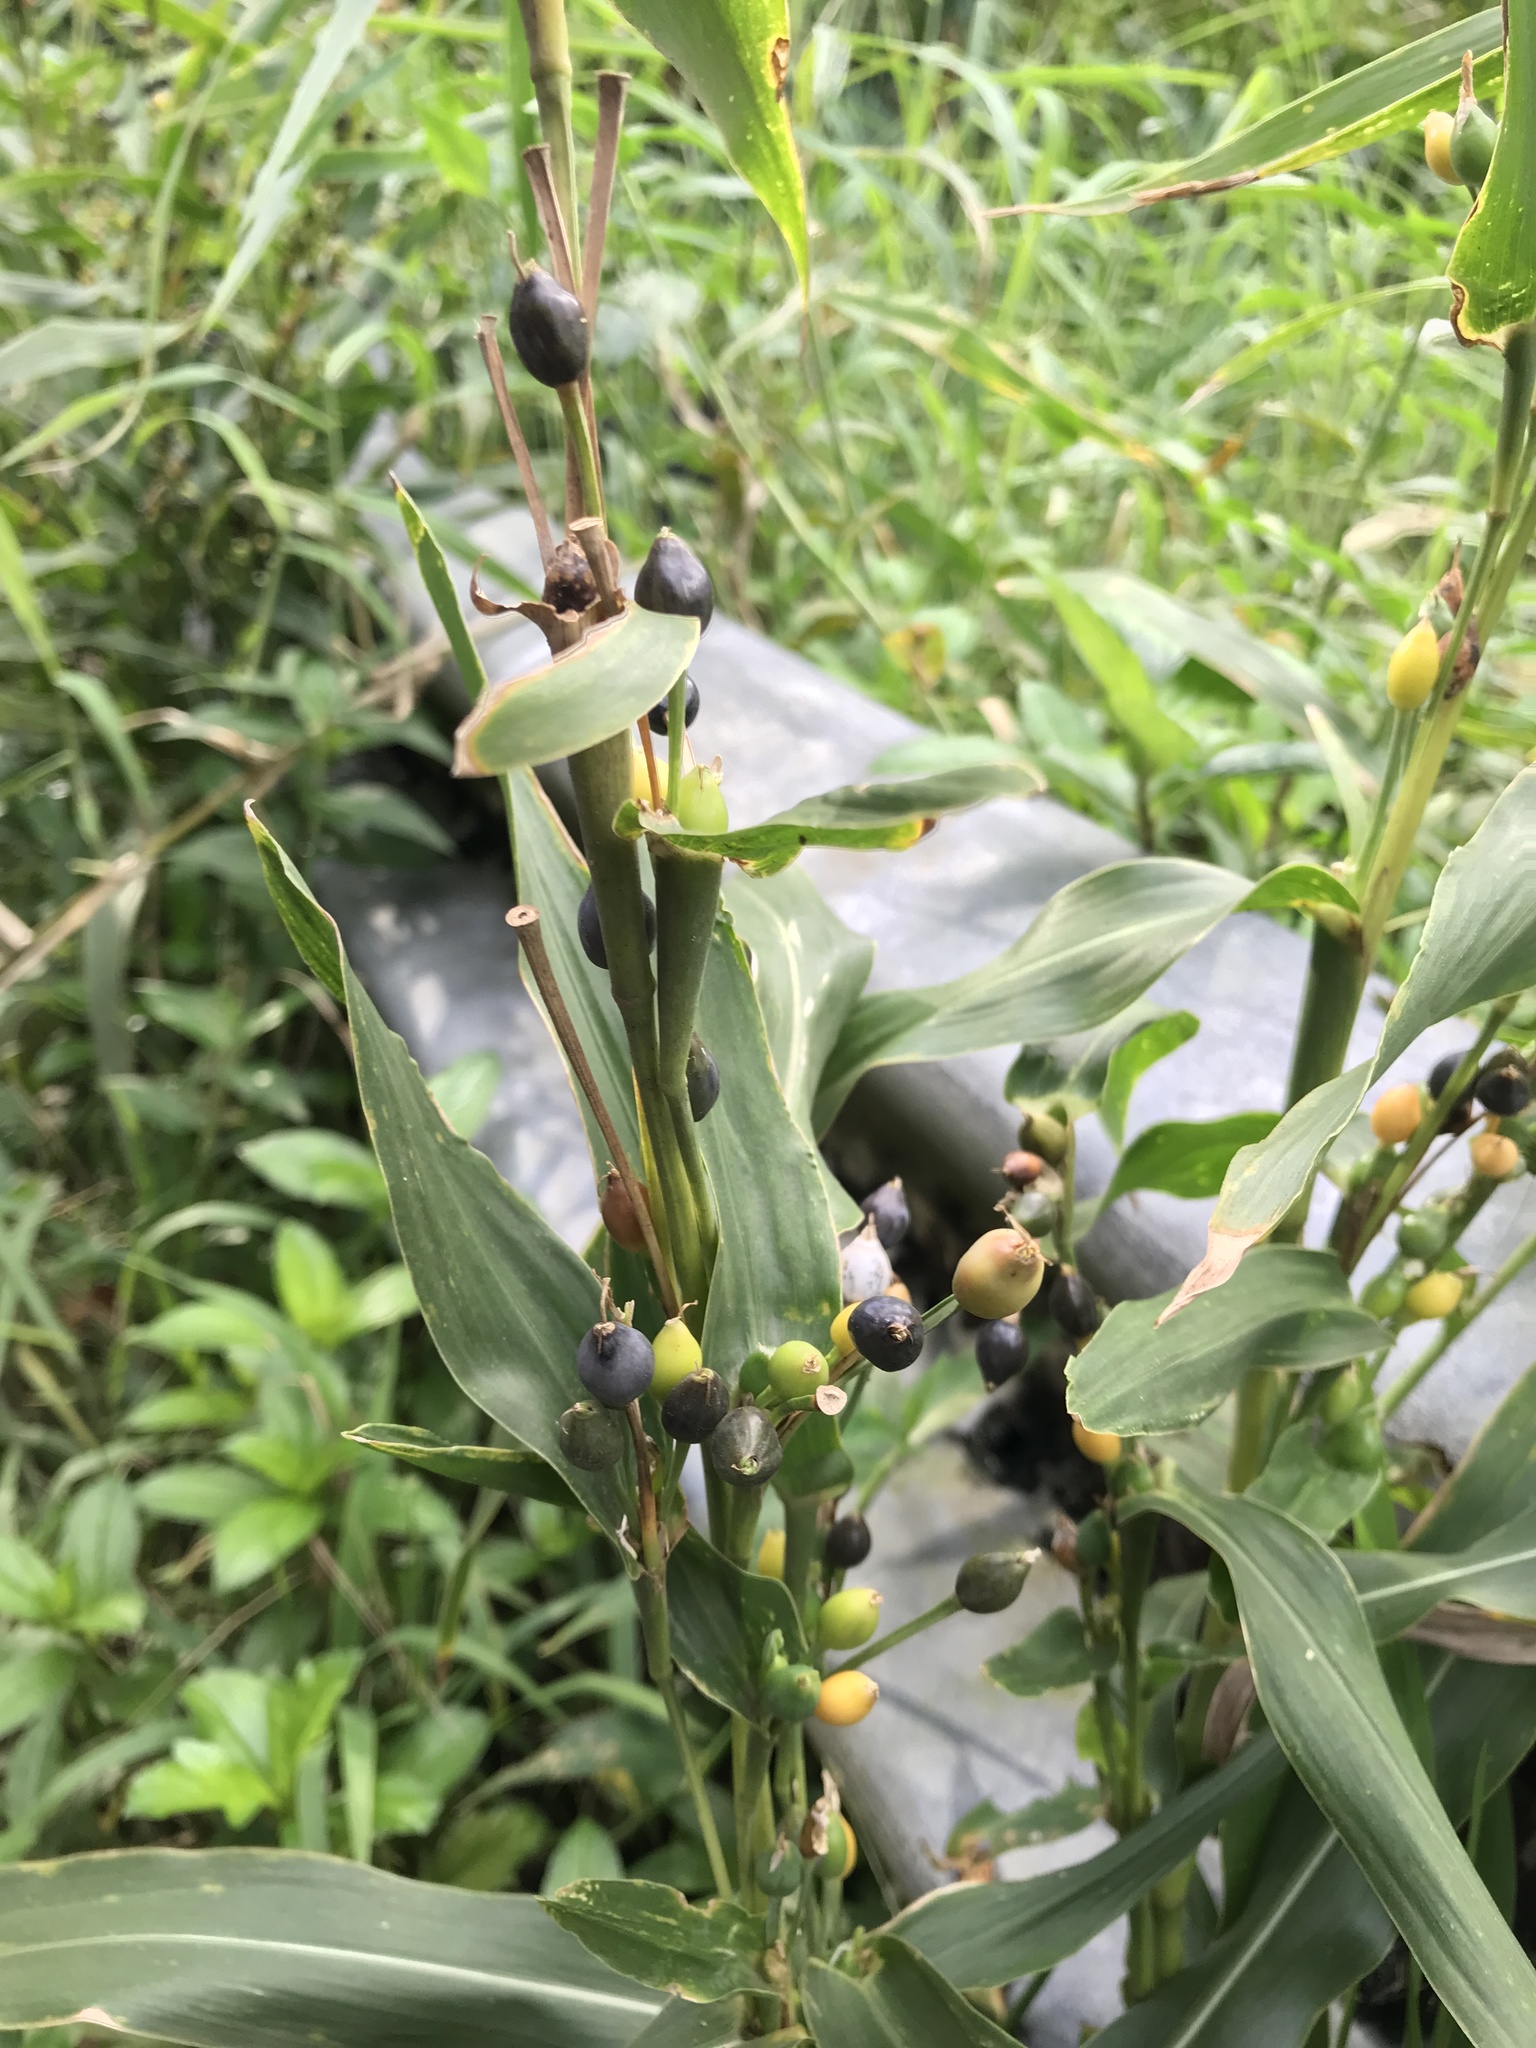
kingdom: Plantae
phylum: Tracheophyta
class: Liliopsida
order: Poales
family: Poaceae
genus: Coix
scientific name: Coix lacryma-jobi
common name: Job's tears
